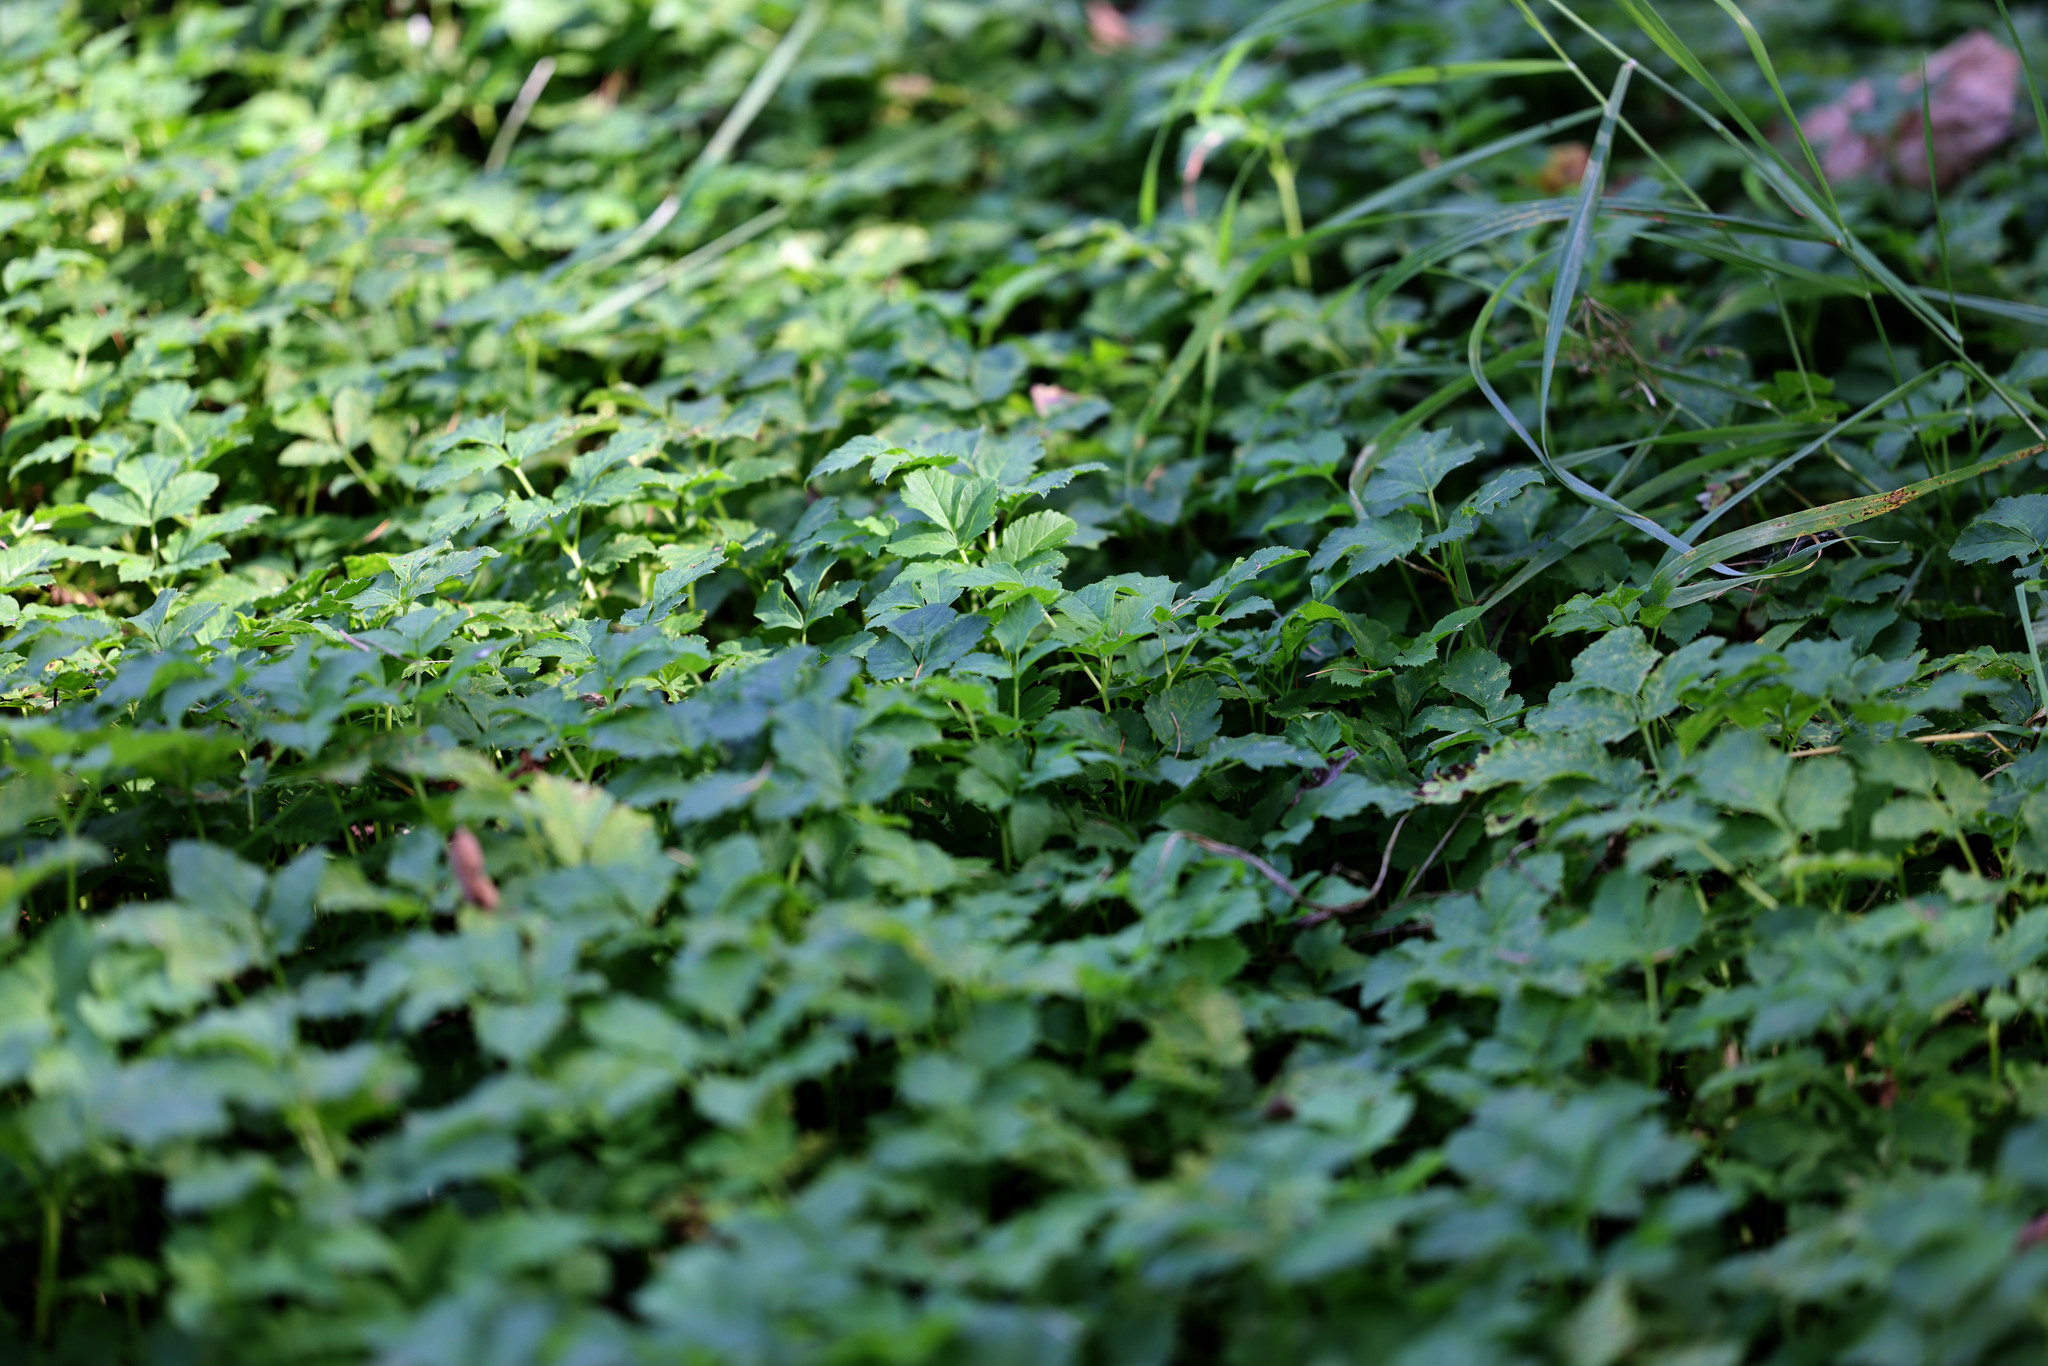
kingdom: Plantae
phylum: Tracheophyta
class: Magnoliopsida
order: Apiales
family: Apiaceae
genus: Aegopodium
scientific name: Aegopodium podagraria
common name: Ground-elder
